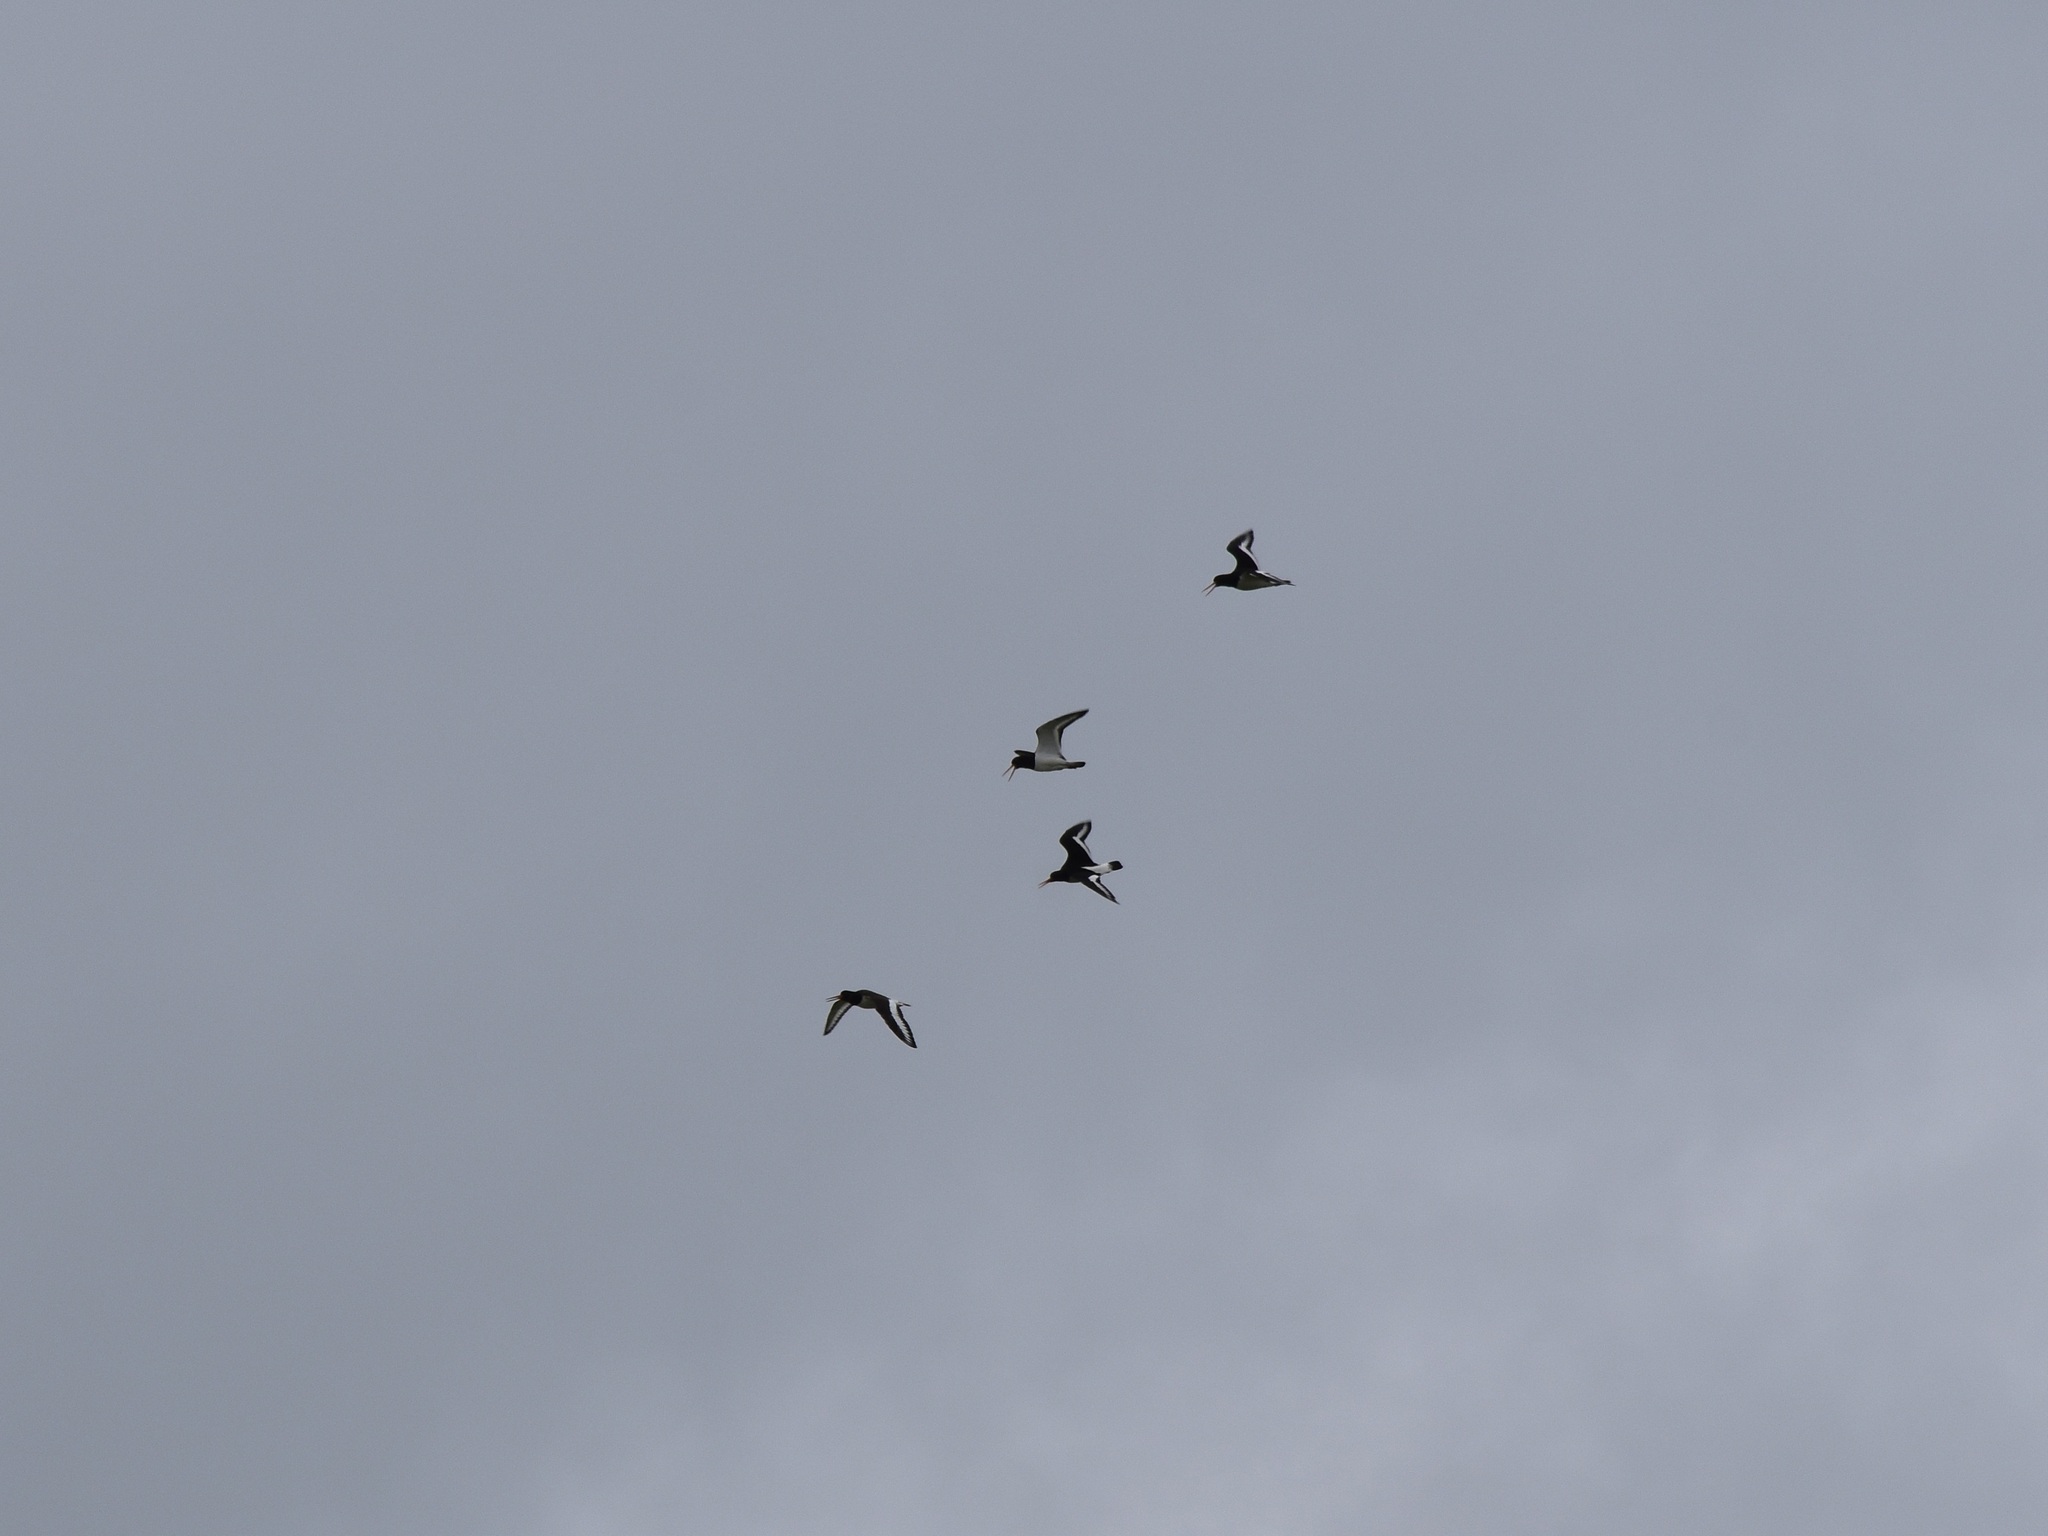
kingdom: Animalia
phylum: Chordata
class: Aves
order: Charadriiformes
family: Haematopodidae
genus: Haematopus
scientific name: Haematopus ostralegus
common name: Eurasian oystercatcher
